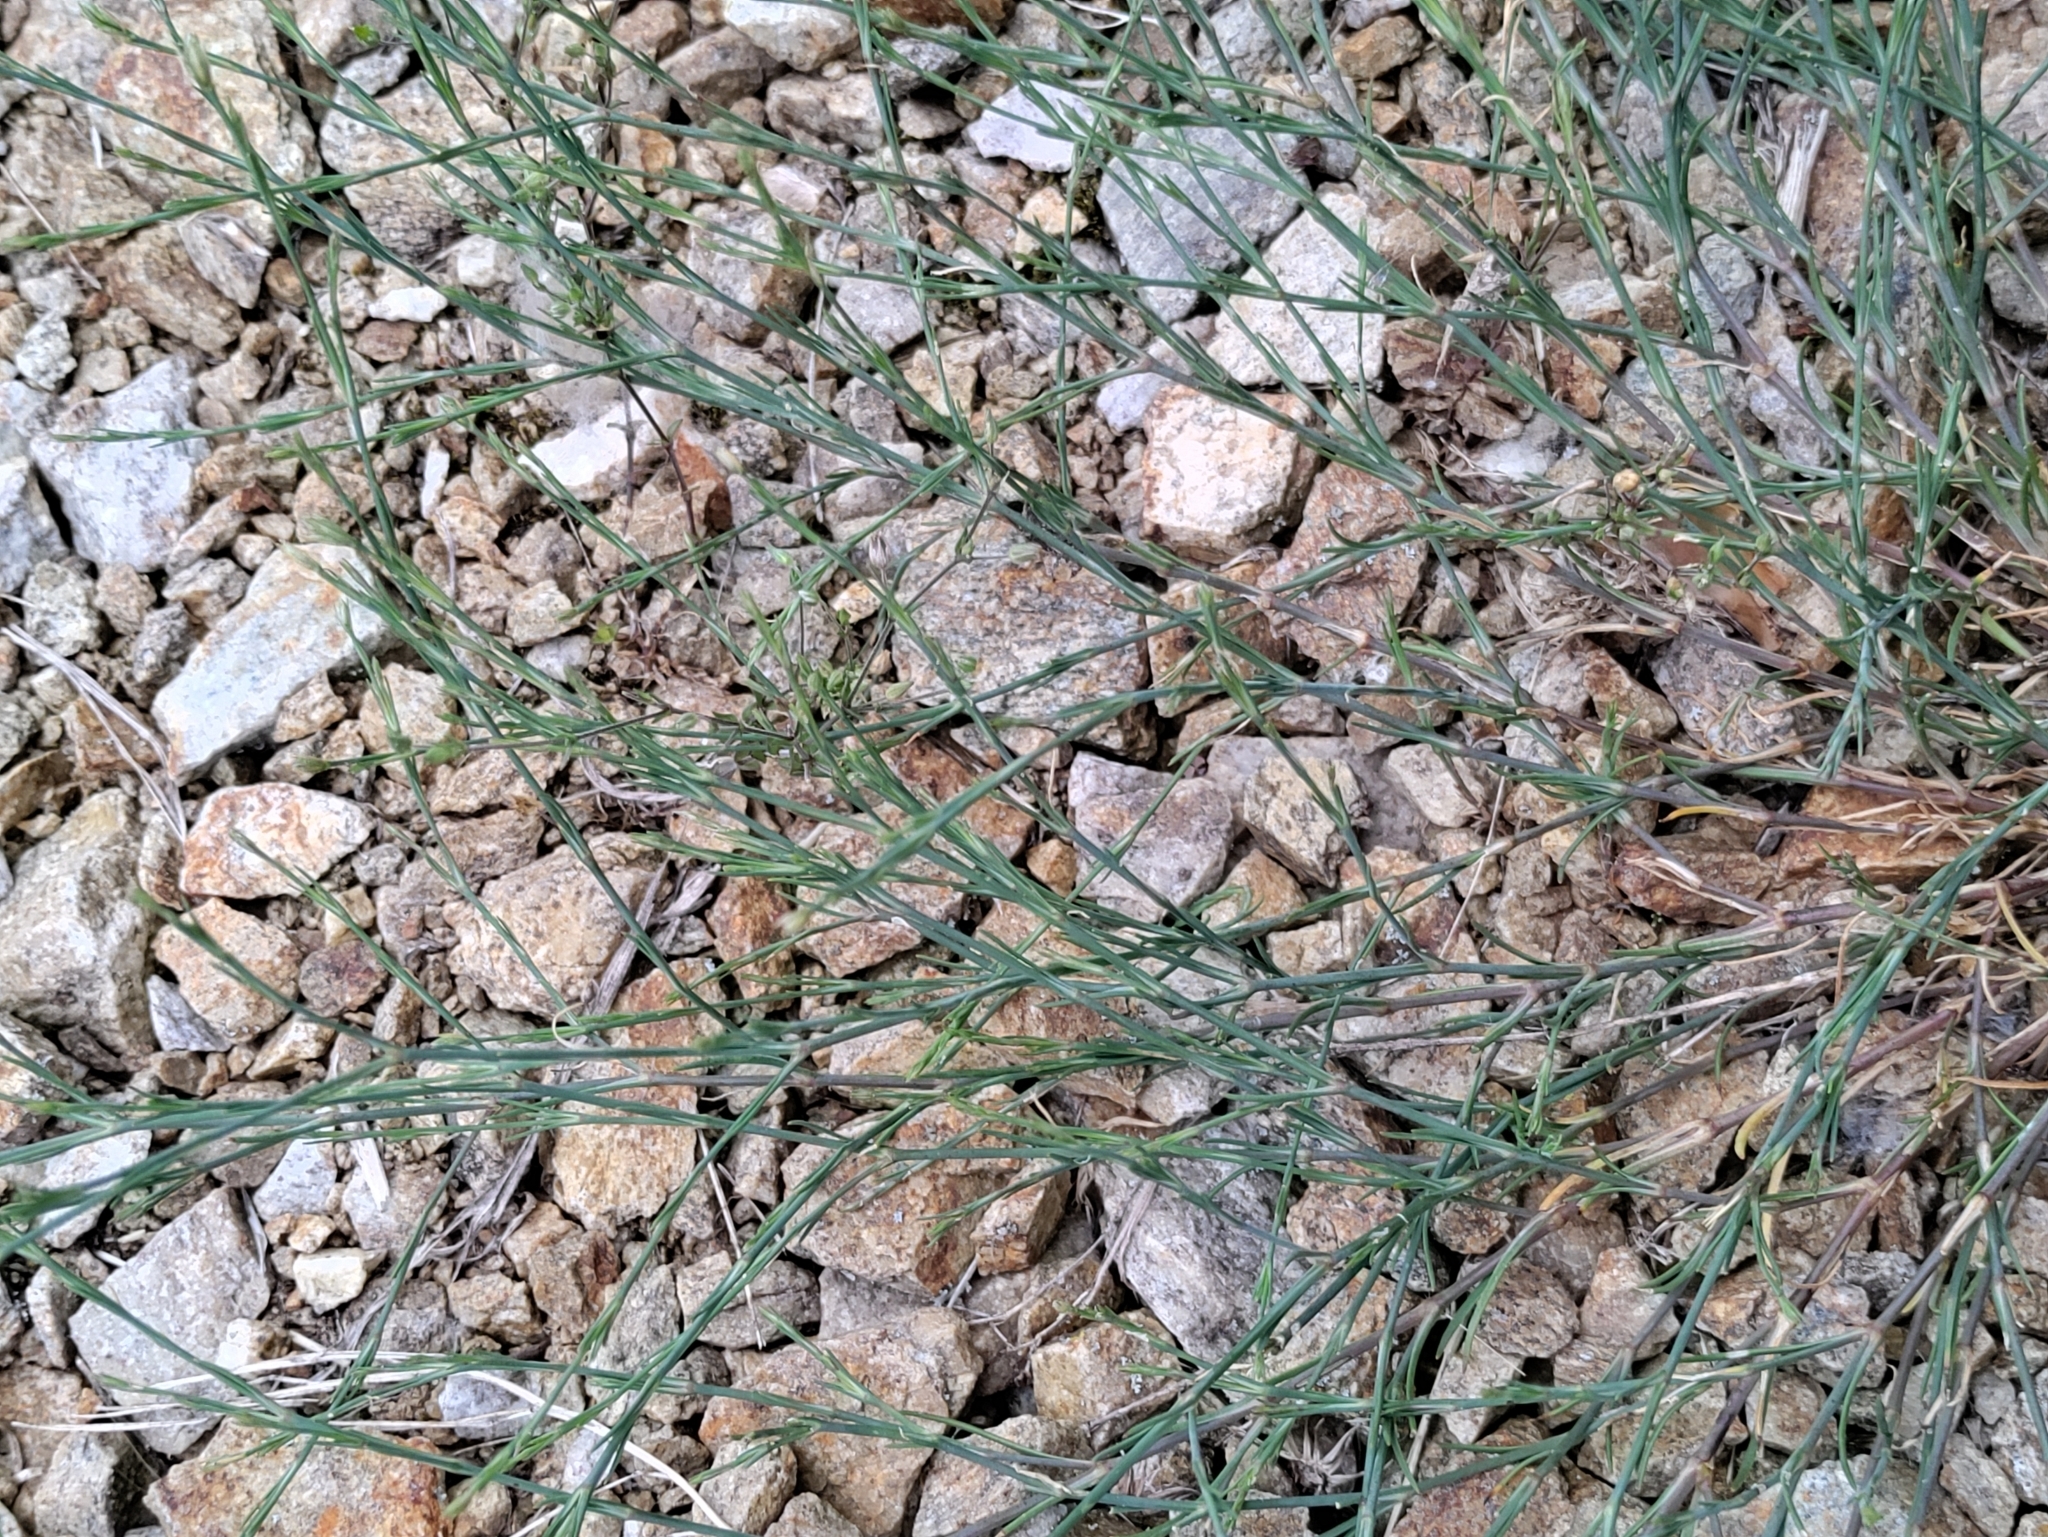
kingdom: Plantae
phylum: Tracheophyta
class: Magnoliopsida
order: Caryophyllales
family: Caryophyllaceae
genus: Petrorhagia
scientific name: Petrorhagia saxifraga
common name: Tunicflower
